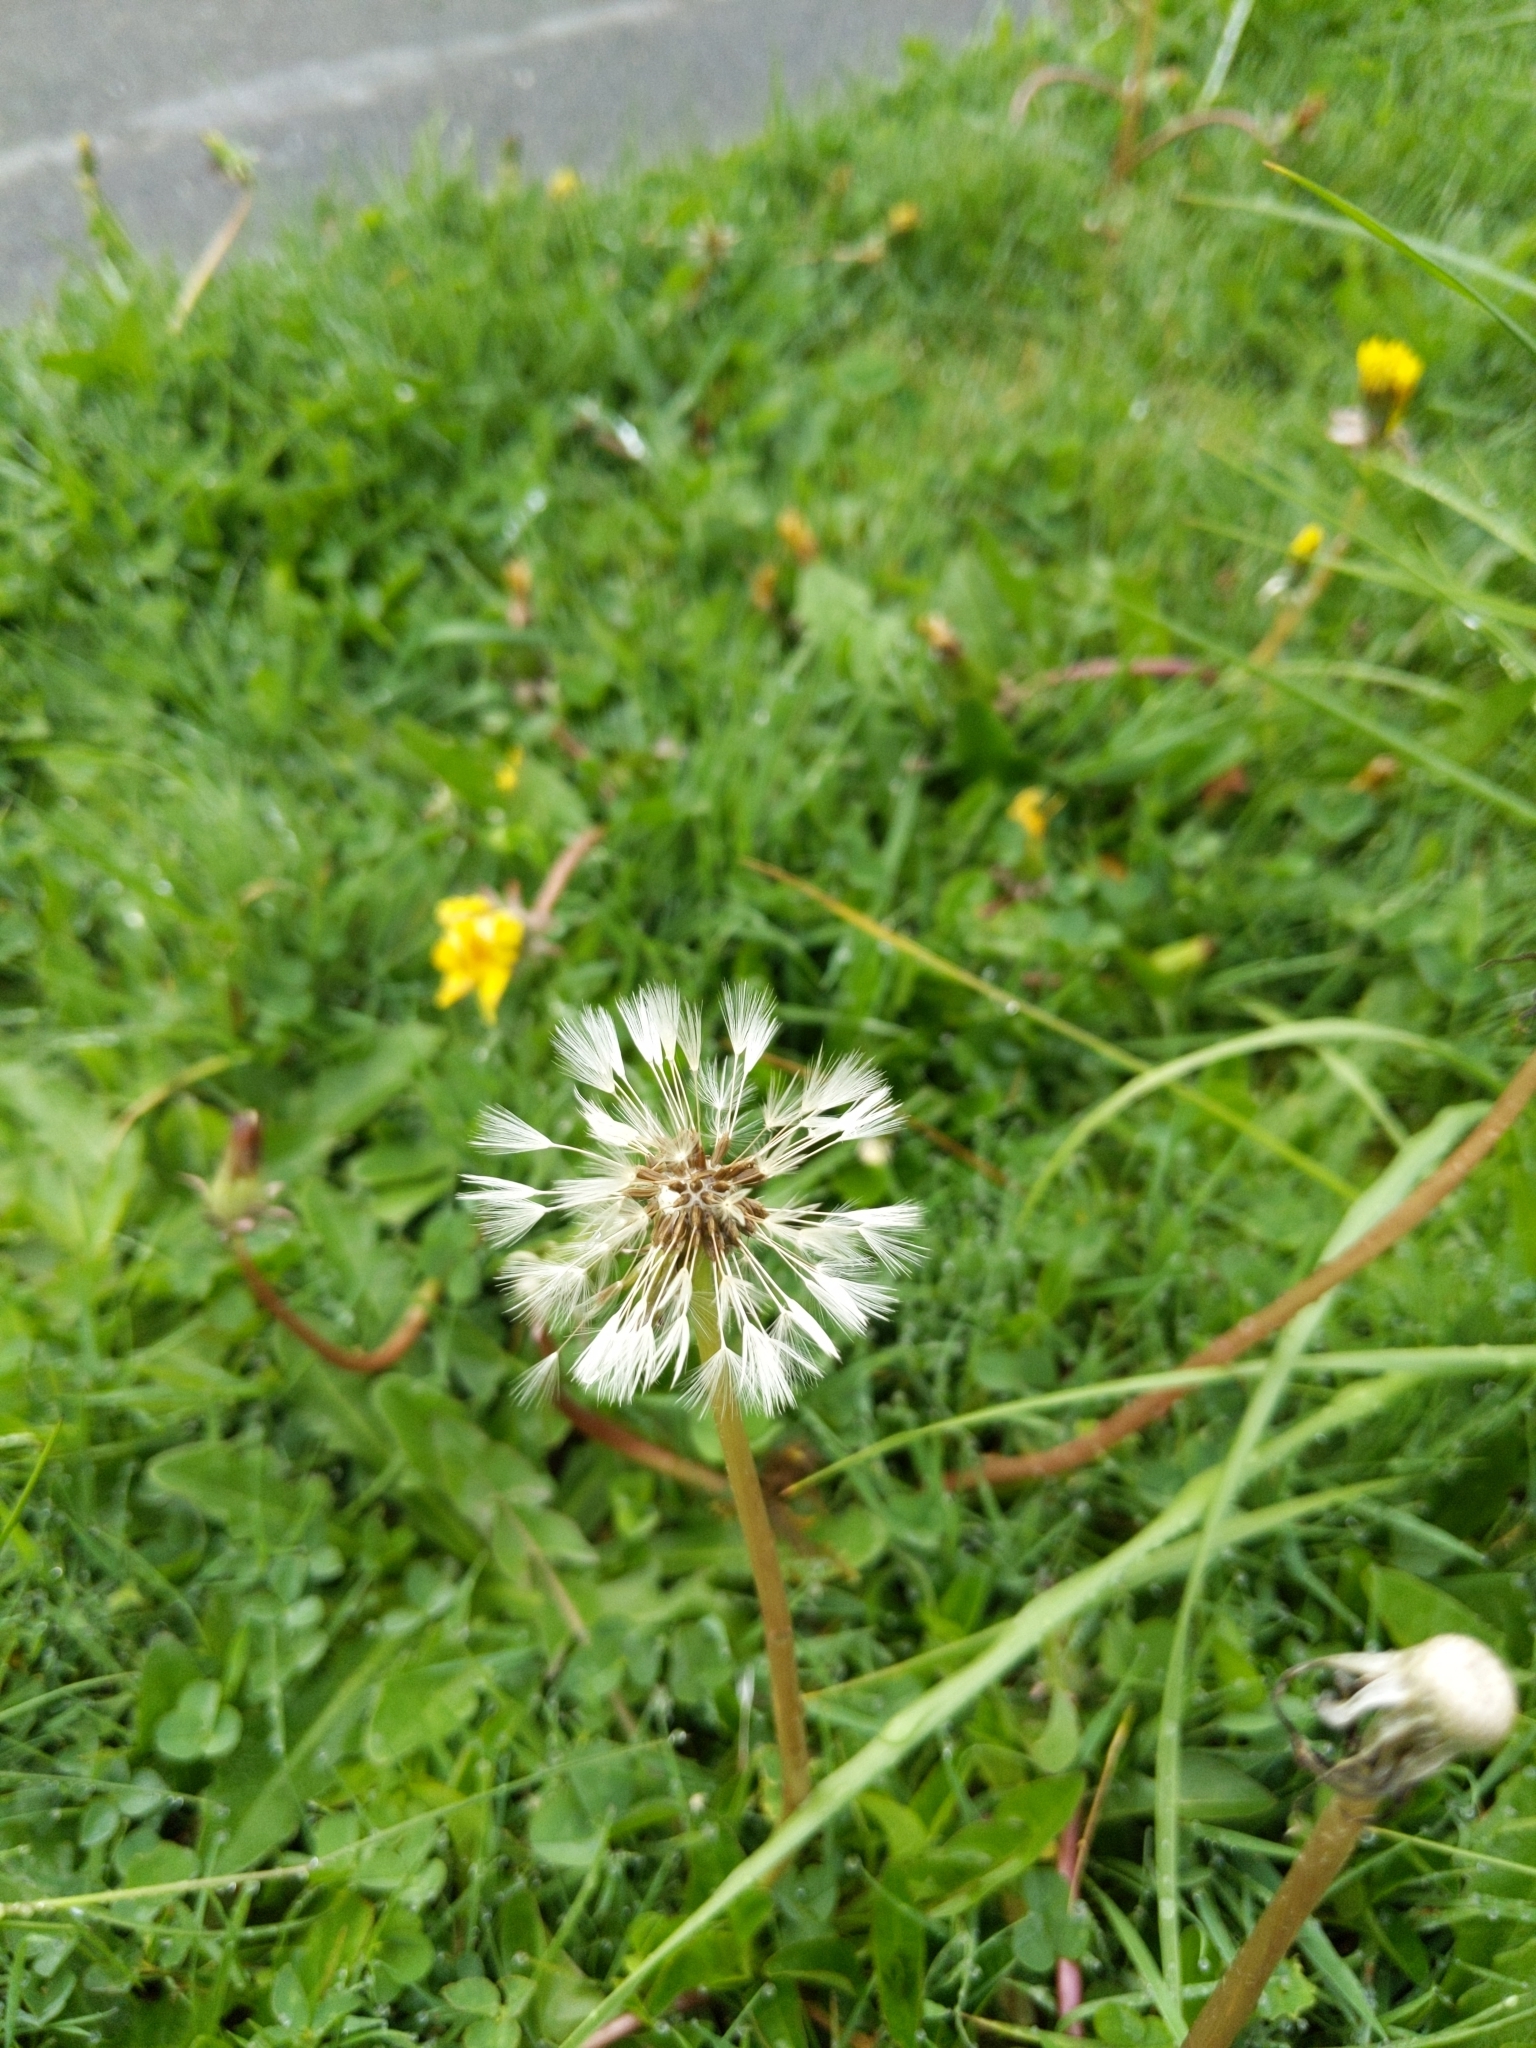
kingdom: Plantae
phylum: Tracheophyta
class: Magnoliopsida
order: Asterales
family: Asteraceae
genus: Taraxacum
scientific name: Taraxacum officinale
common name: Common dandelion
